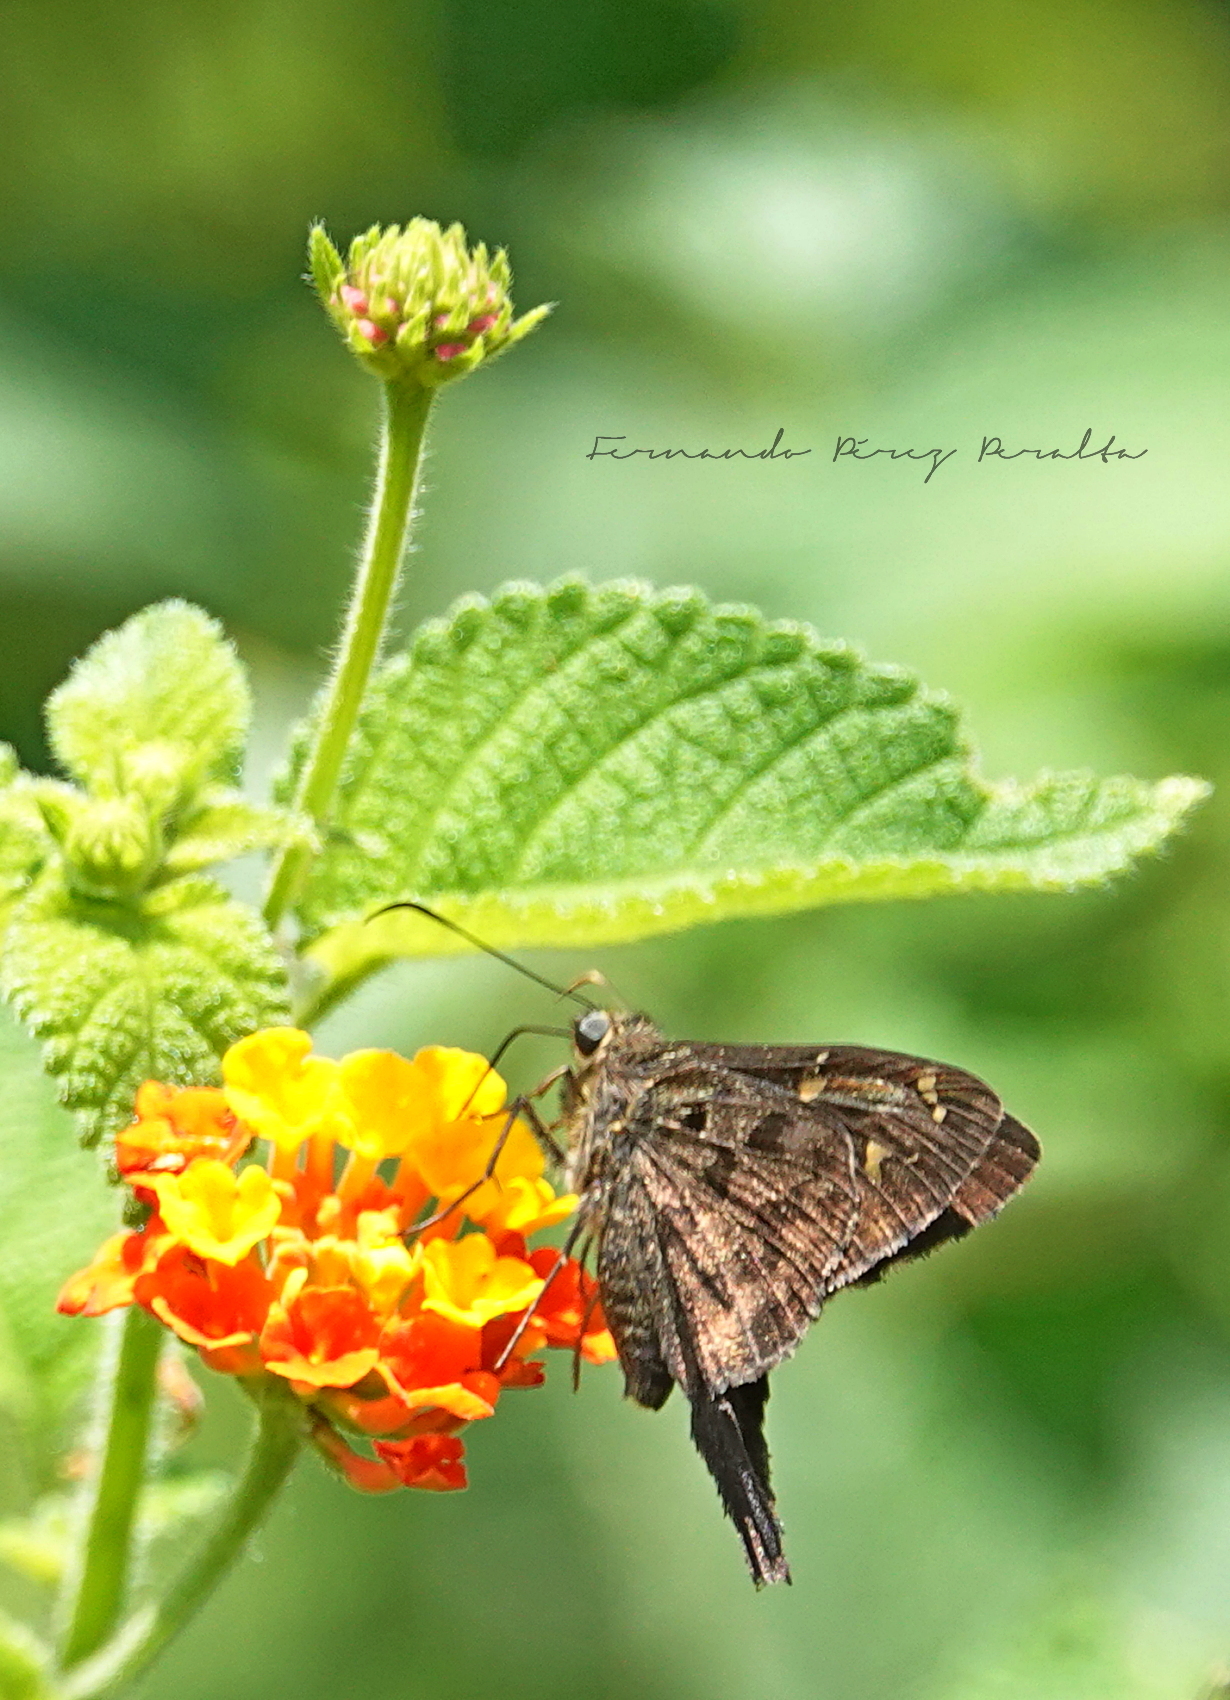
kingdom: Animalia
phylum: Arthropoda
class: Insecta
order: Lepidoptera
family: Hesperiidae
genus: Thorybes
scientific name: Thorybes
